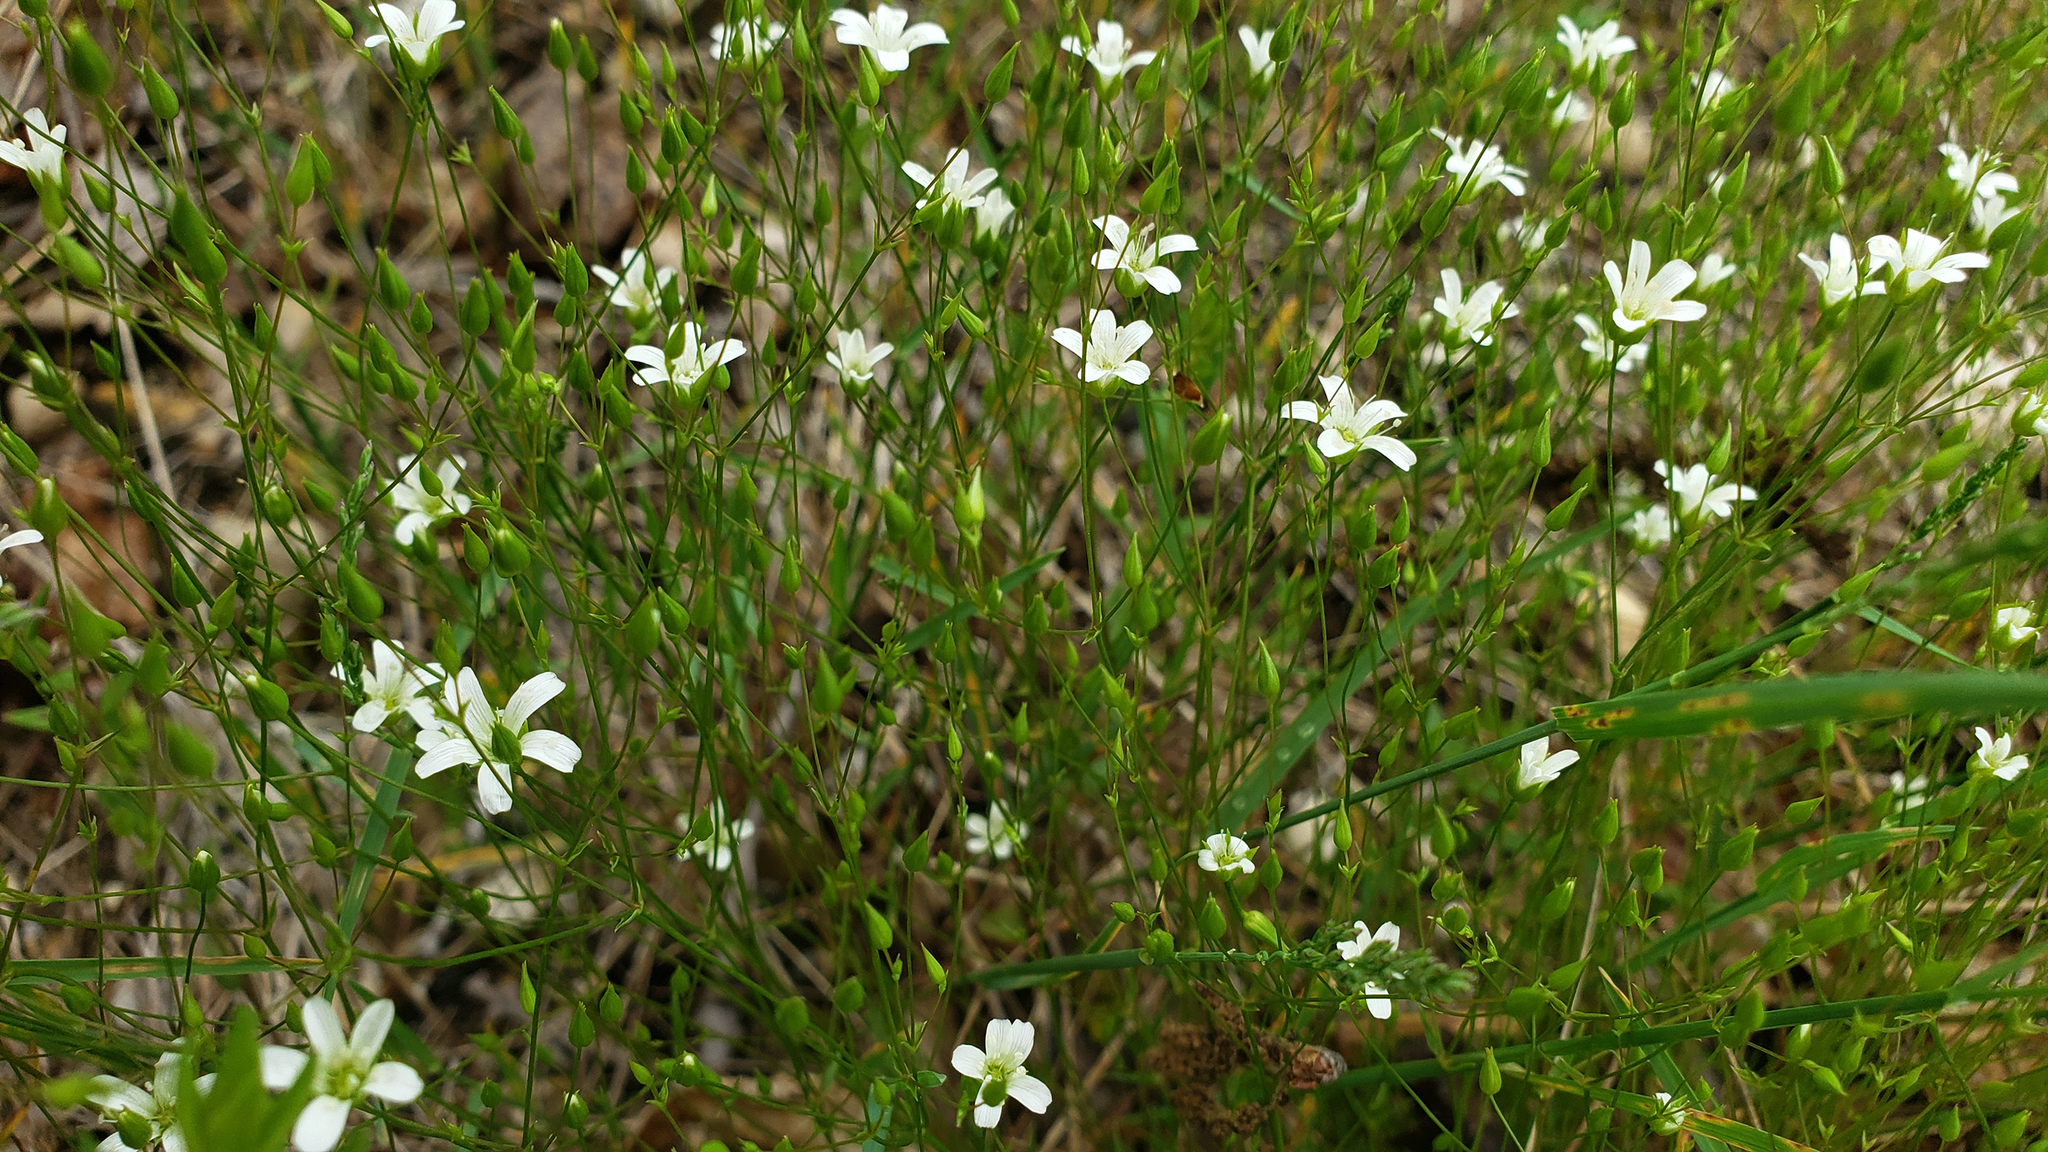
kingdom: Plantae
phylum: Tracheophyta
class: Magnoliopsida
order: Caryophyllales
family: Caryophyllaceae
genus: Sabulina
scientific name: Sabulina michauxii
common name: Michaux's stitchwort
